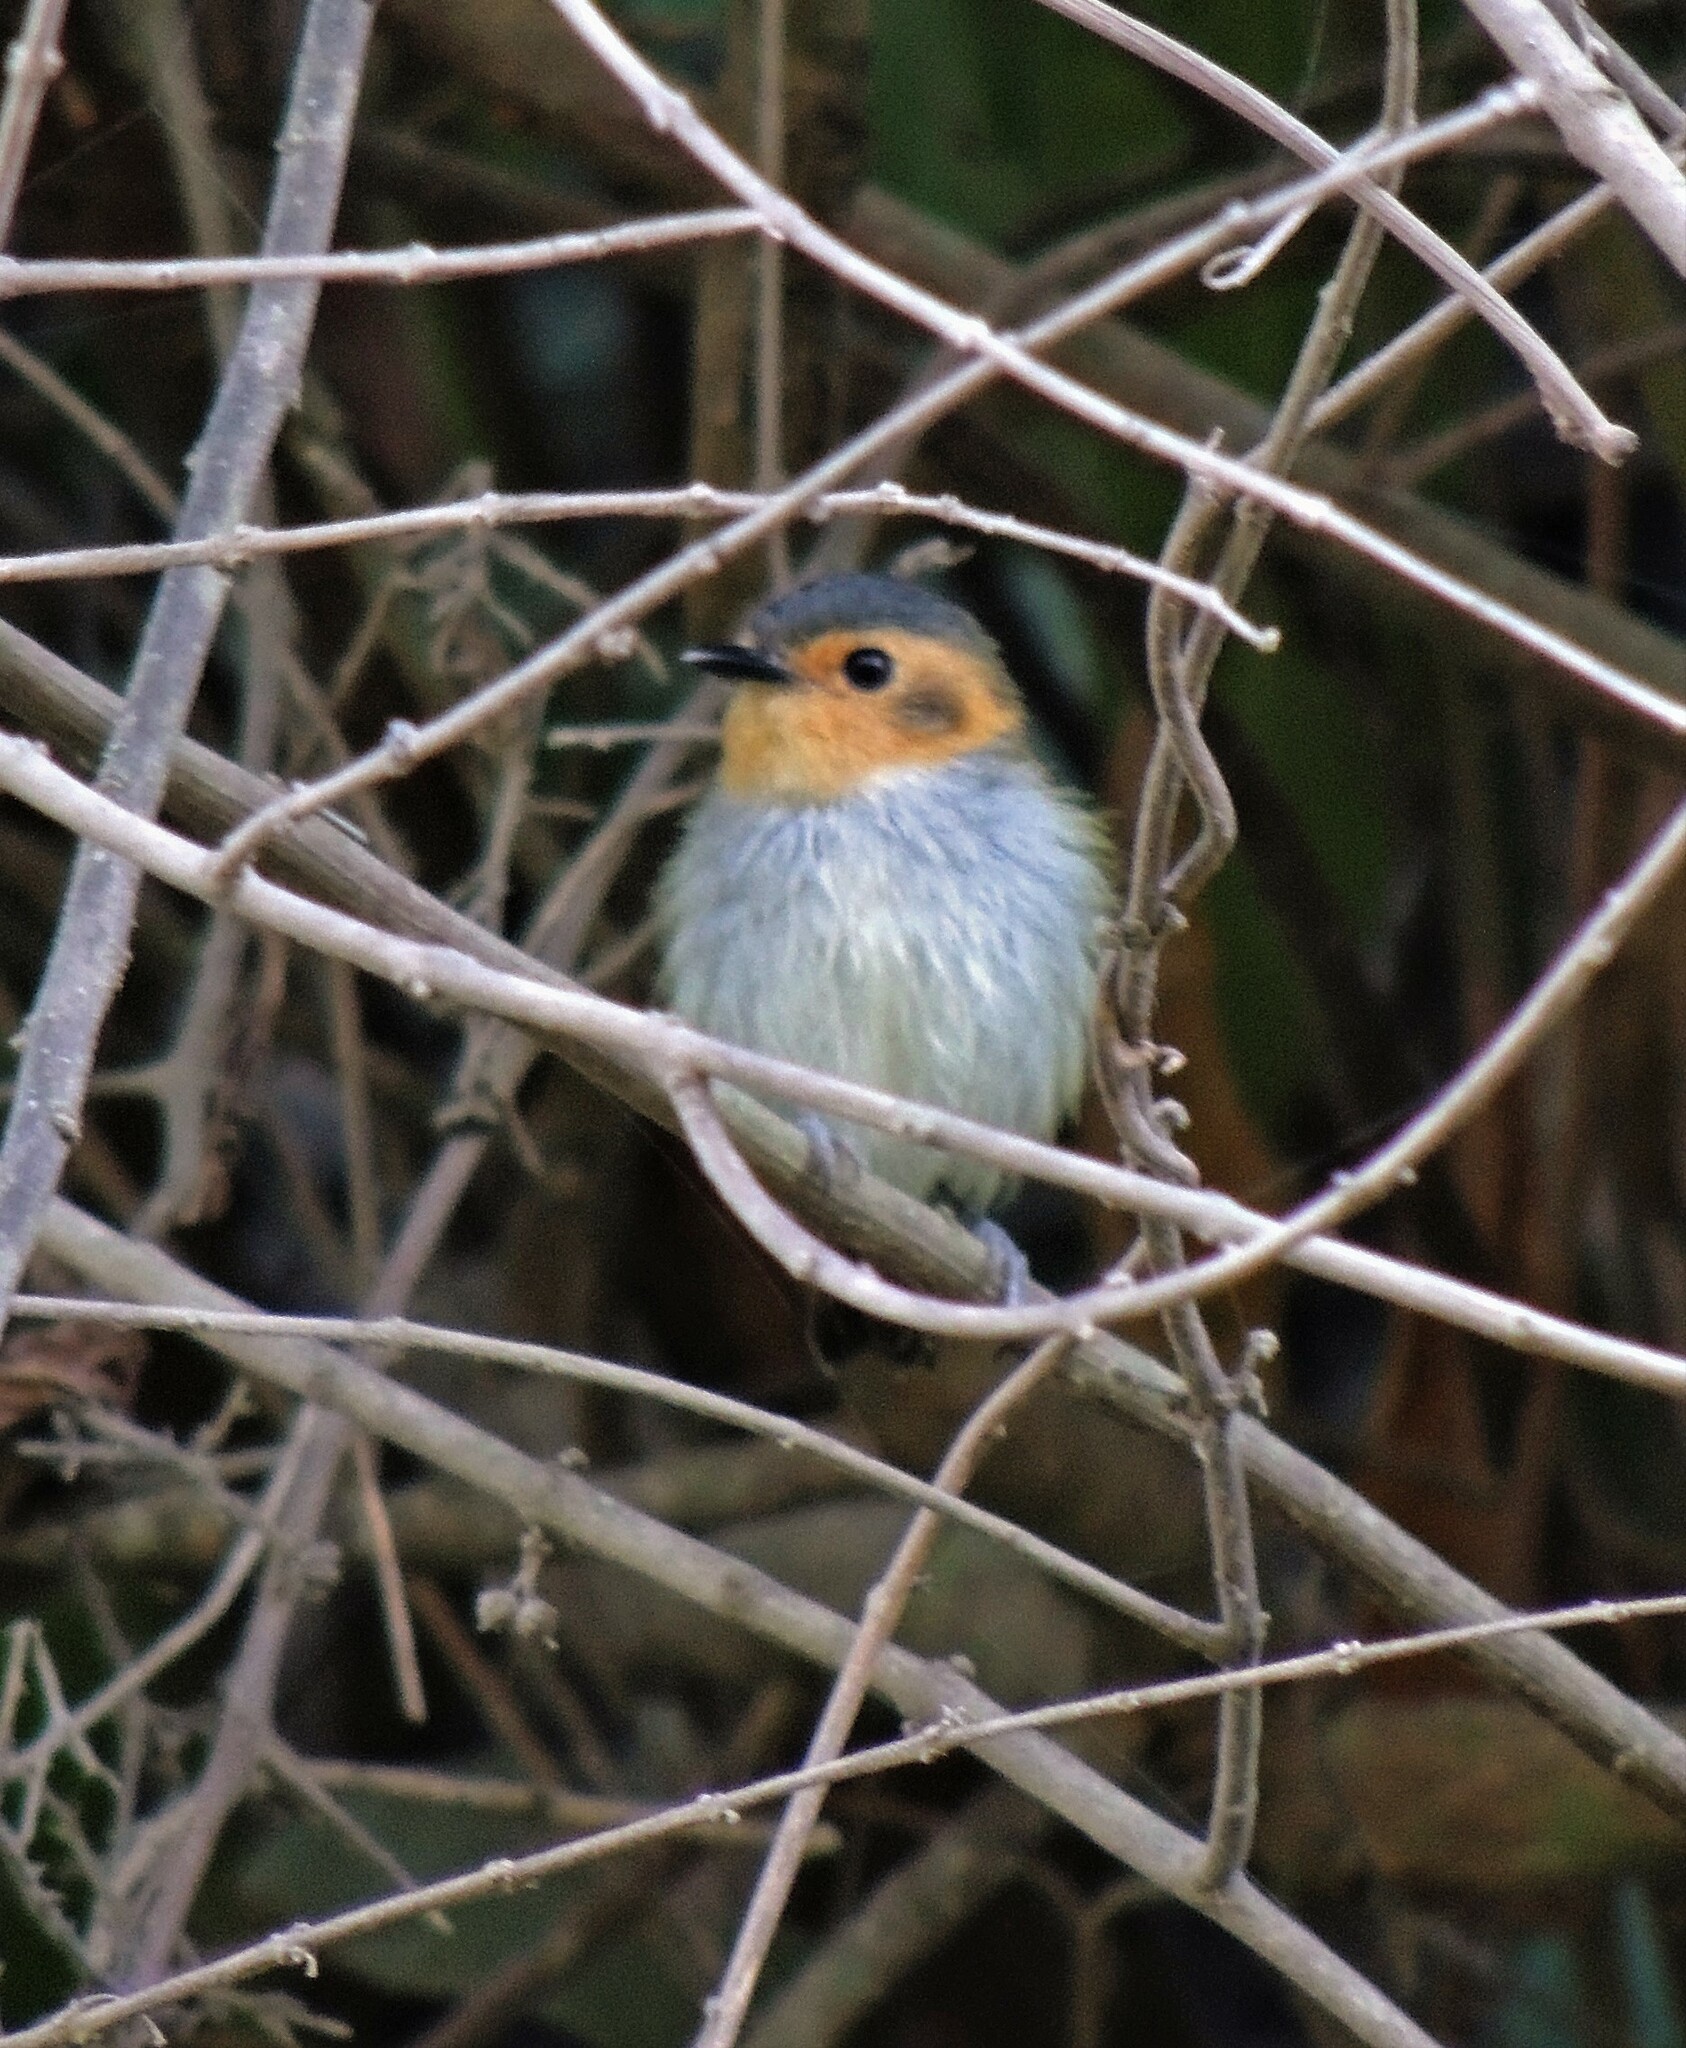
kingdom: Animalia
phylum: Chordata
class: Aves
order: Passeriformes
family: Tyrannidae
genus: Poecilotriccus
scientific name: Poecilotriccus plumbeiceps
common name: Ochre-faced tody-flycatcher
